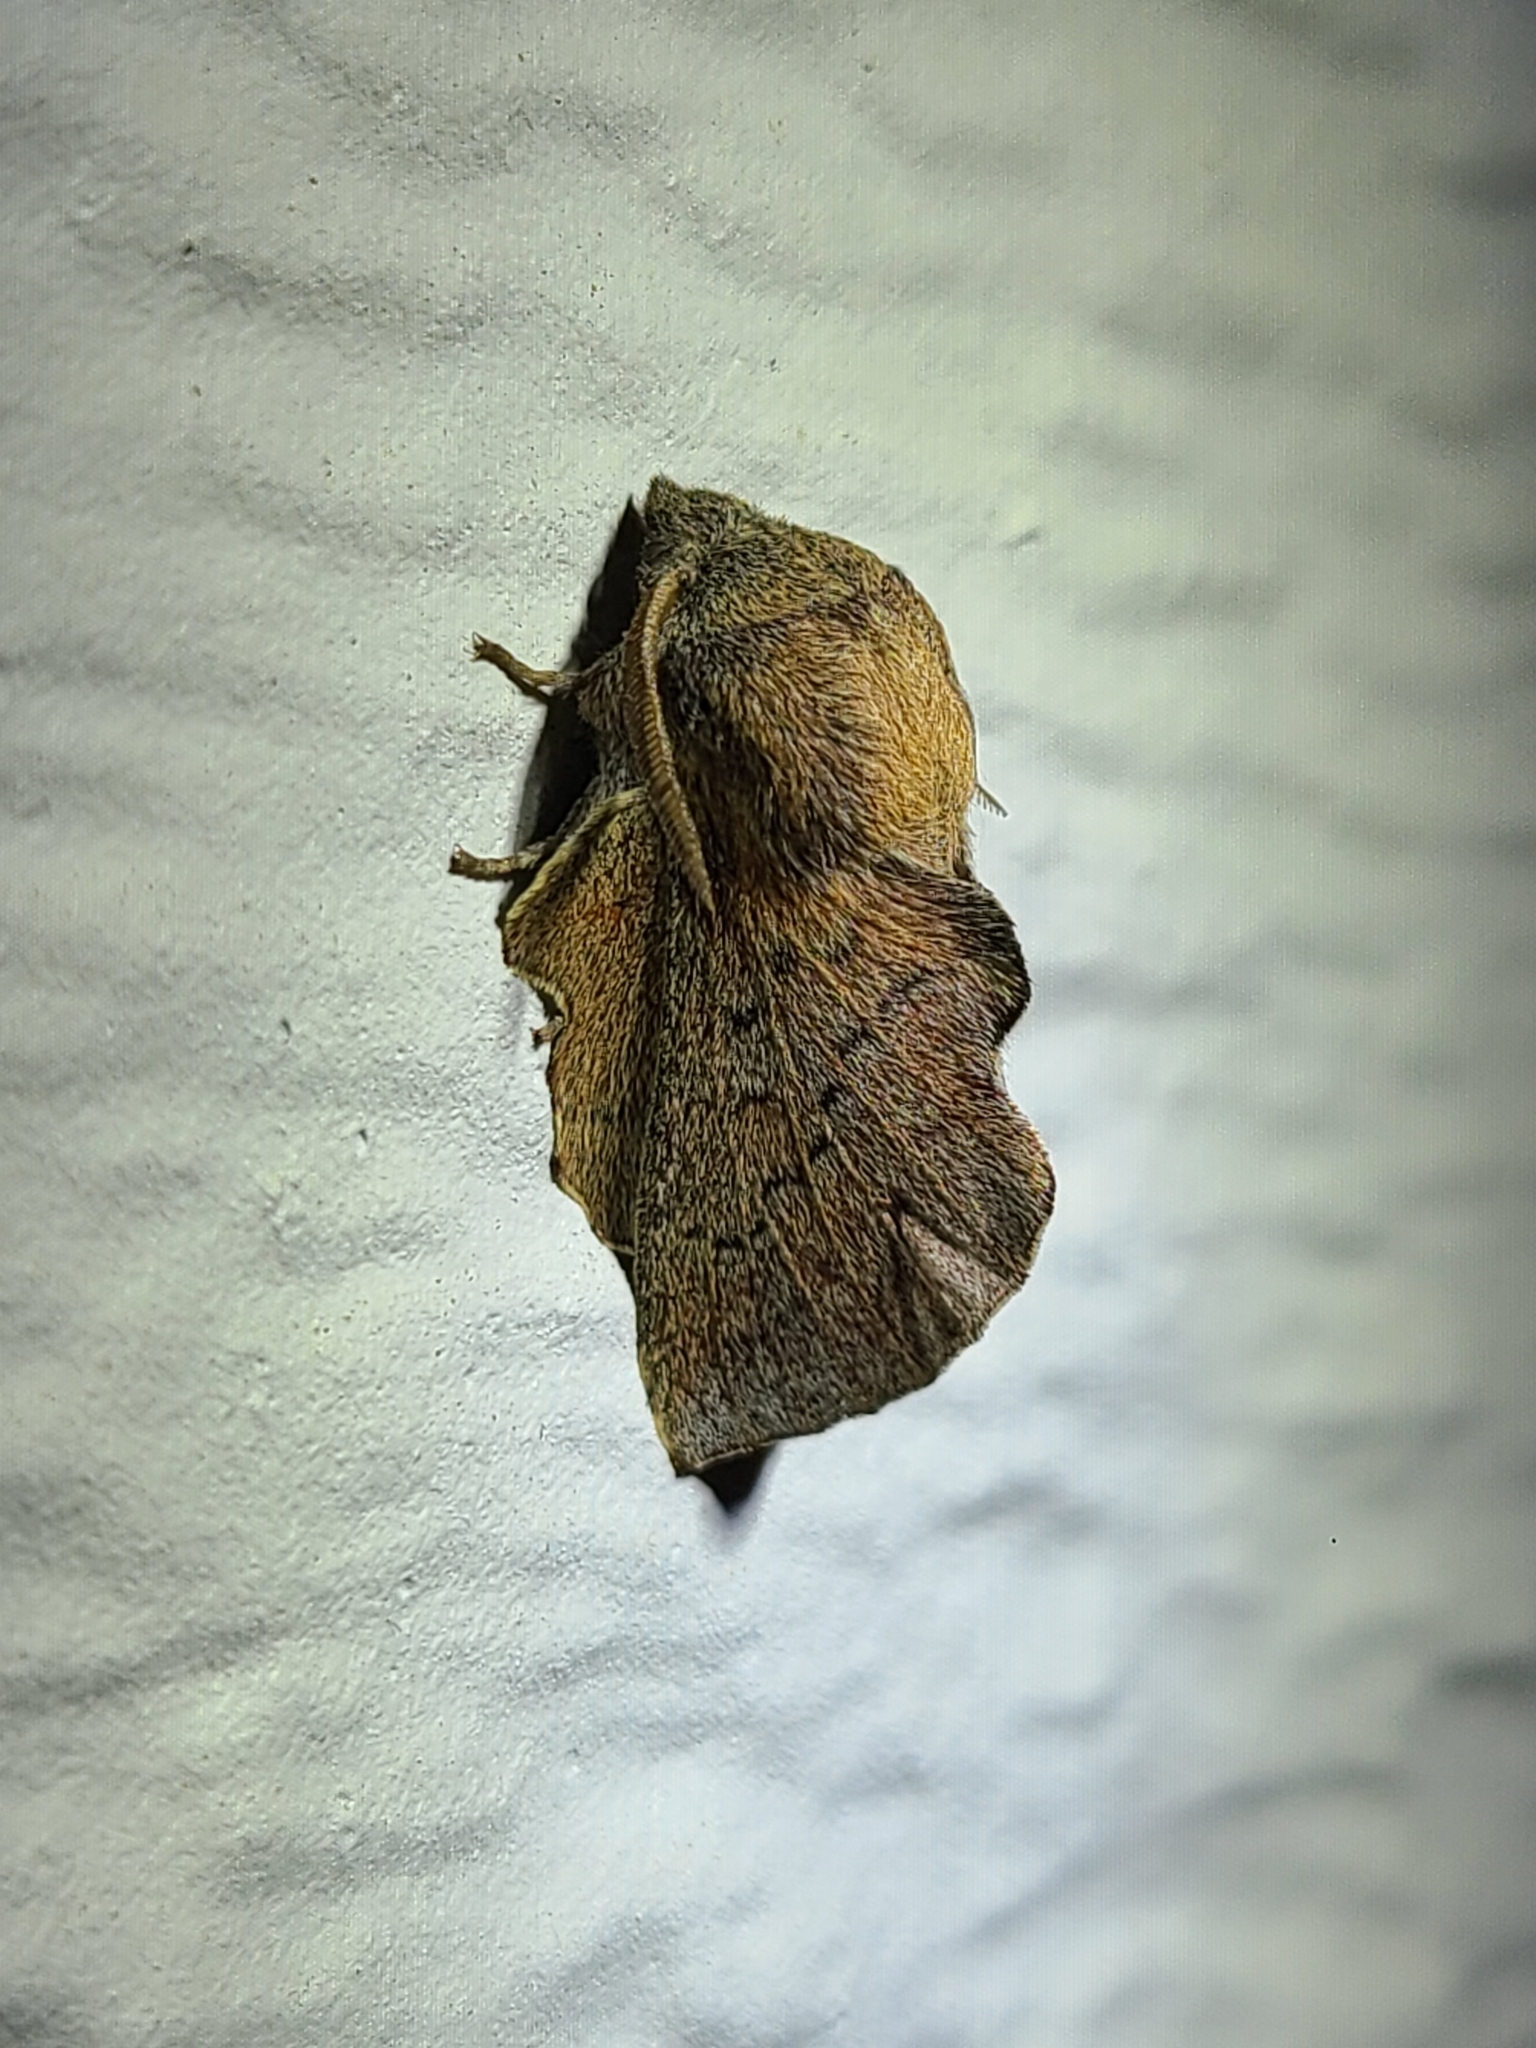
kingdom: Animalia
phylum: Arthropoda
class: Insecta
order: Lepidoptera
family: Lasiocampidae
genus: Phyllodesma
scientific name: Phyllodesma americana
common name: American lappet moth
